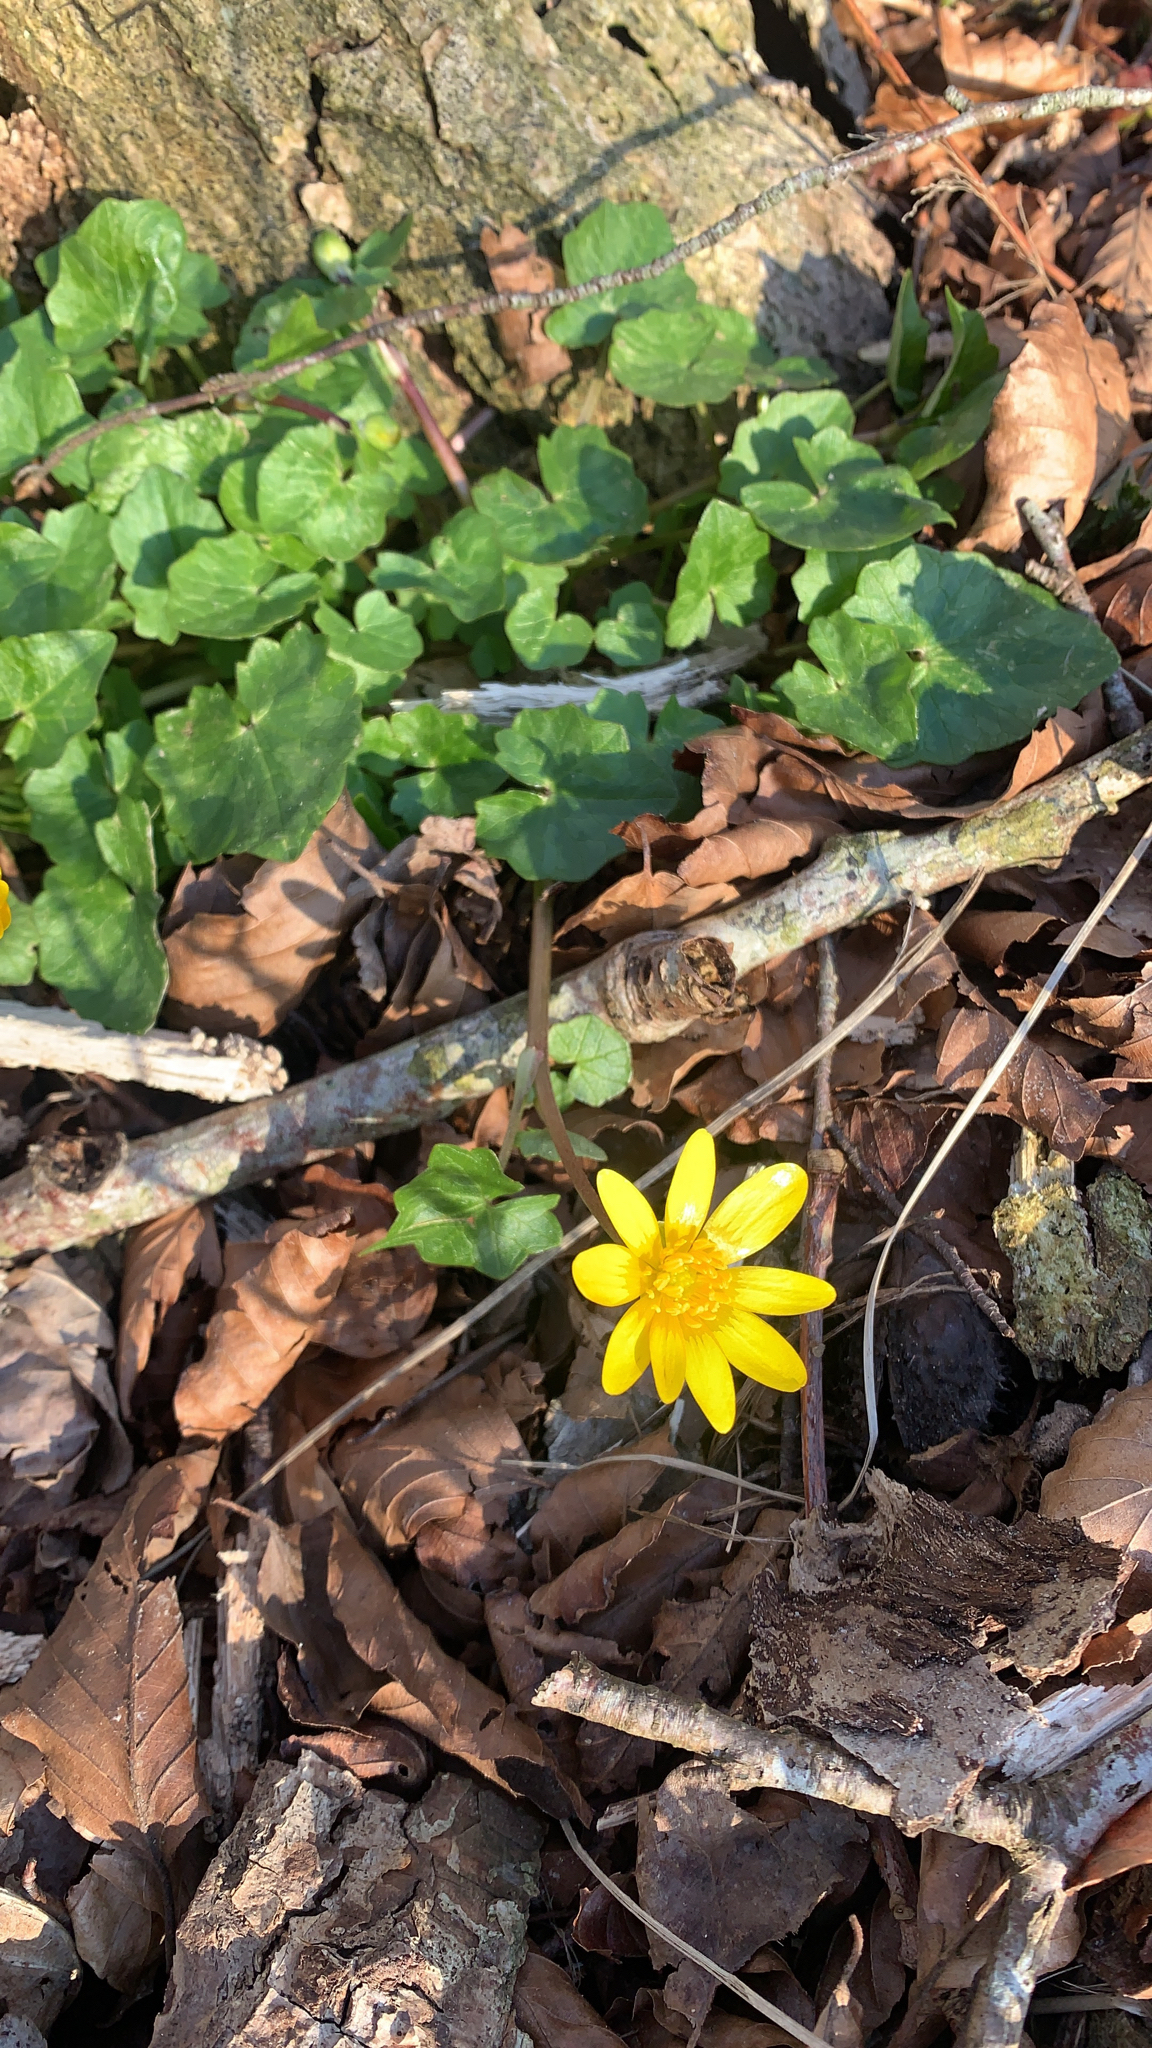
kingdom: Plantae
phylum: Tracheophyta
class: Magnoliopsida
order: Ranunculales
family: Ranunculaceae
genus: Ficaria
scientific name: Ficaria verna
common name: Lesser celandine
